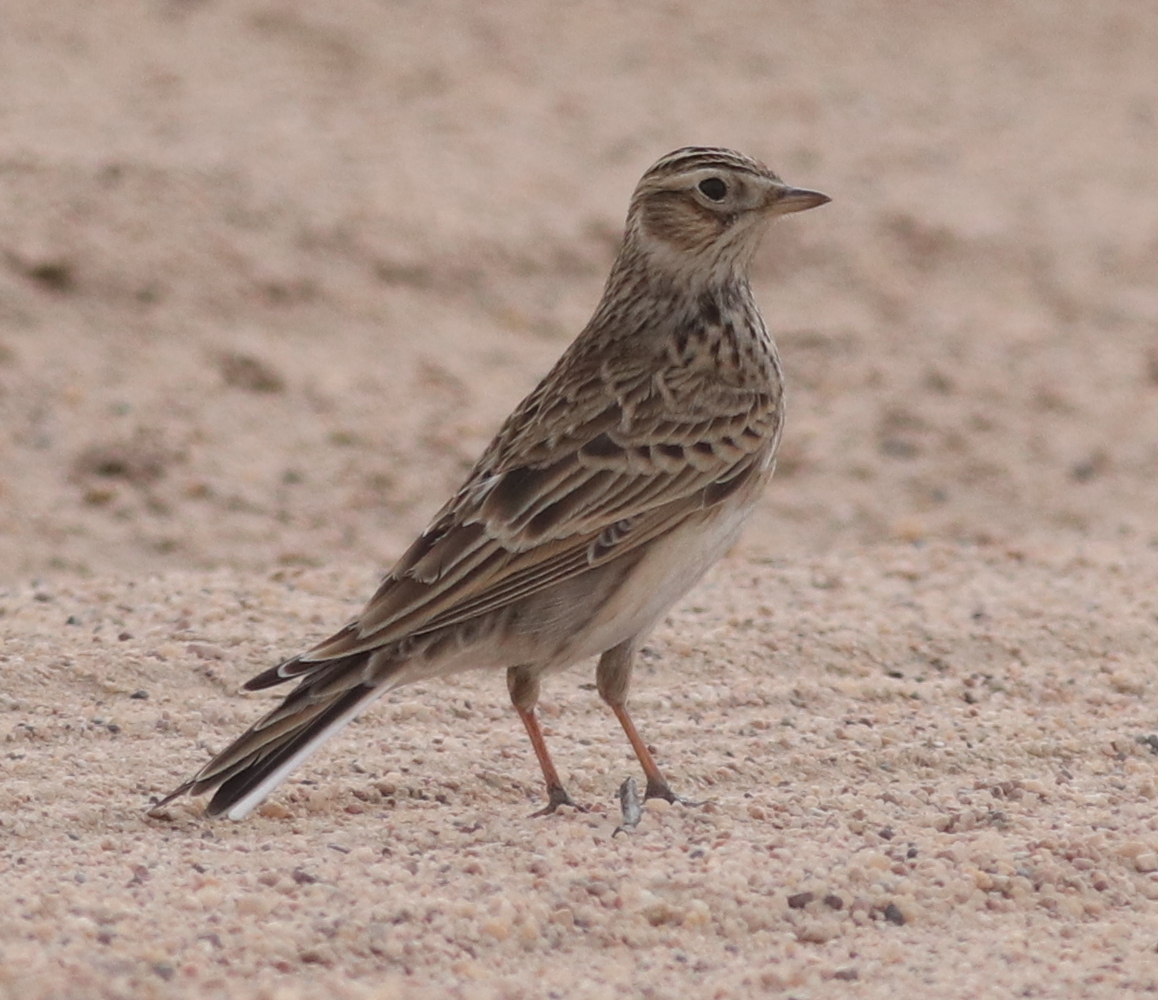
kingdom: Animalia
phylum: Chordata
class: Aves
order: Passeriformes
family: Alaudidae
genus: Alauda
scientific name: Alauda arvensis
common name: Eurasian skylark
